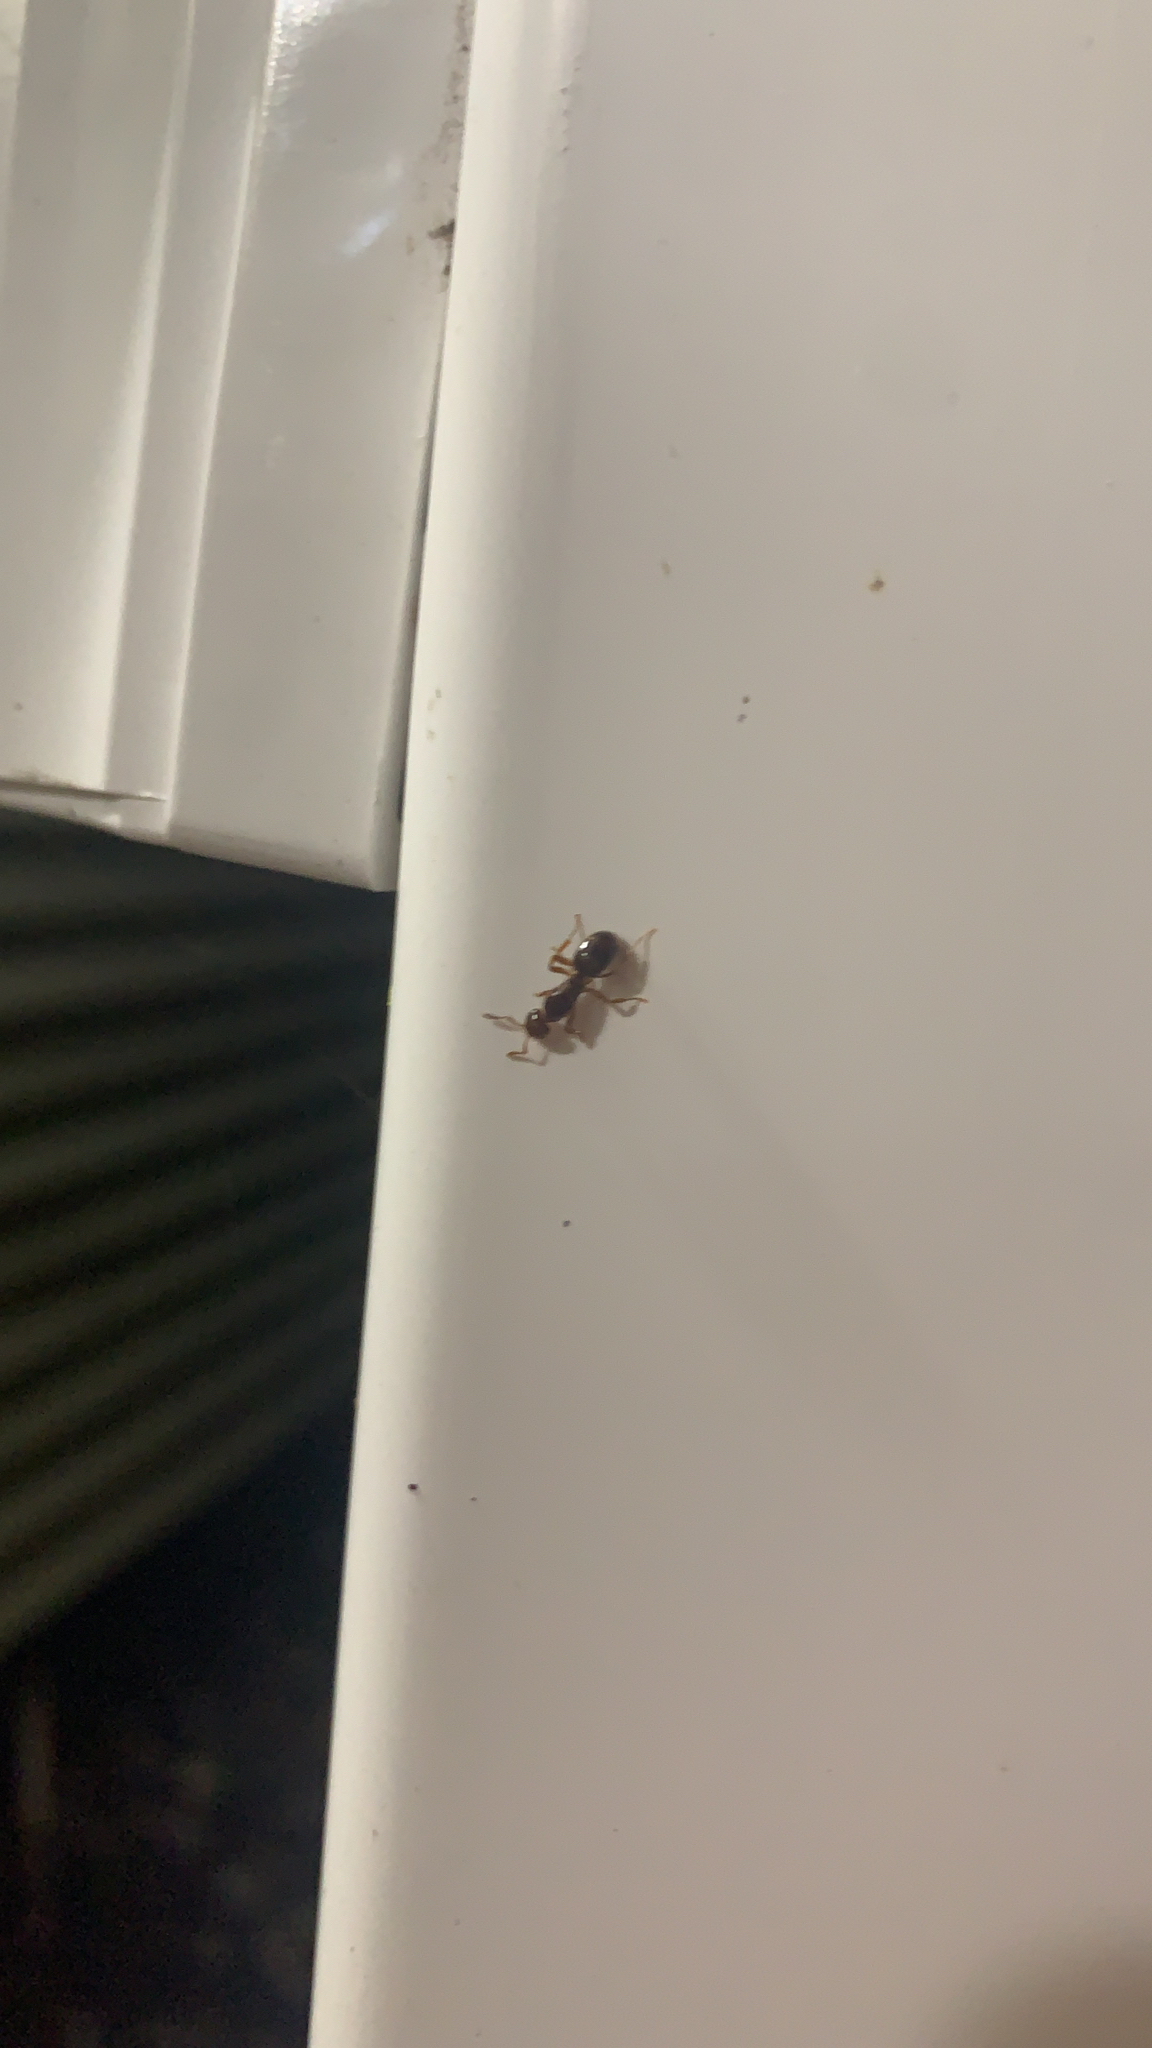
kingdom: Animalia
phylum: Arthropoda
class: Insecta
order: Hymenoptera
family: Formicidae
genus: Lasius
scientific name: Lasius claviger
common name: Common citronella ant
